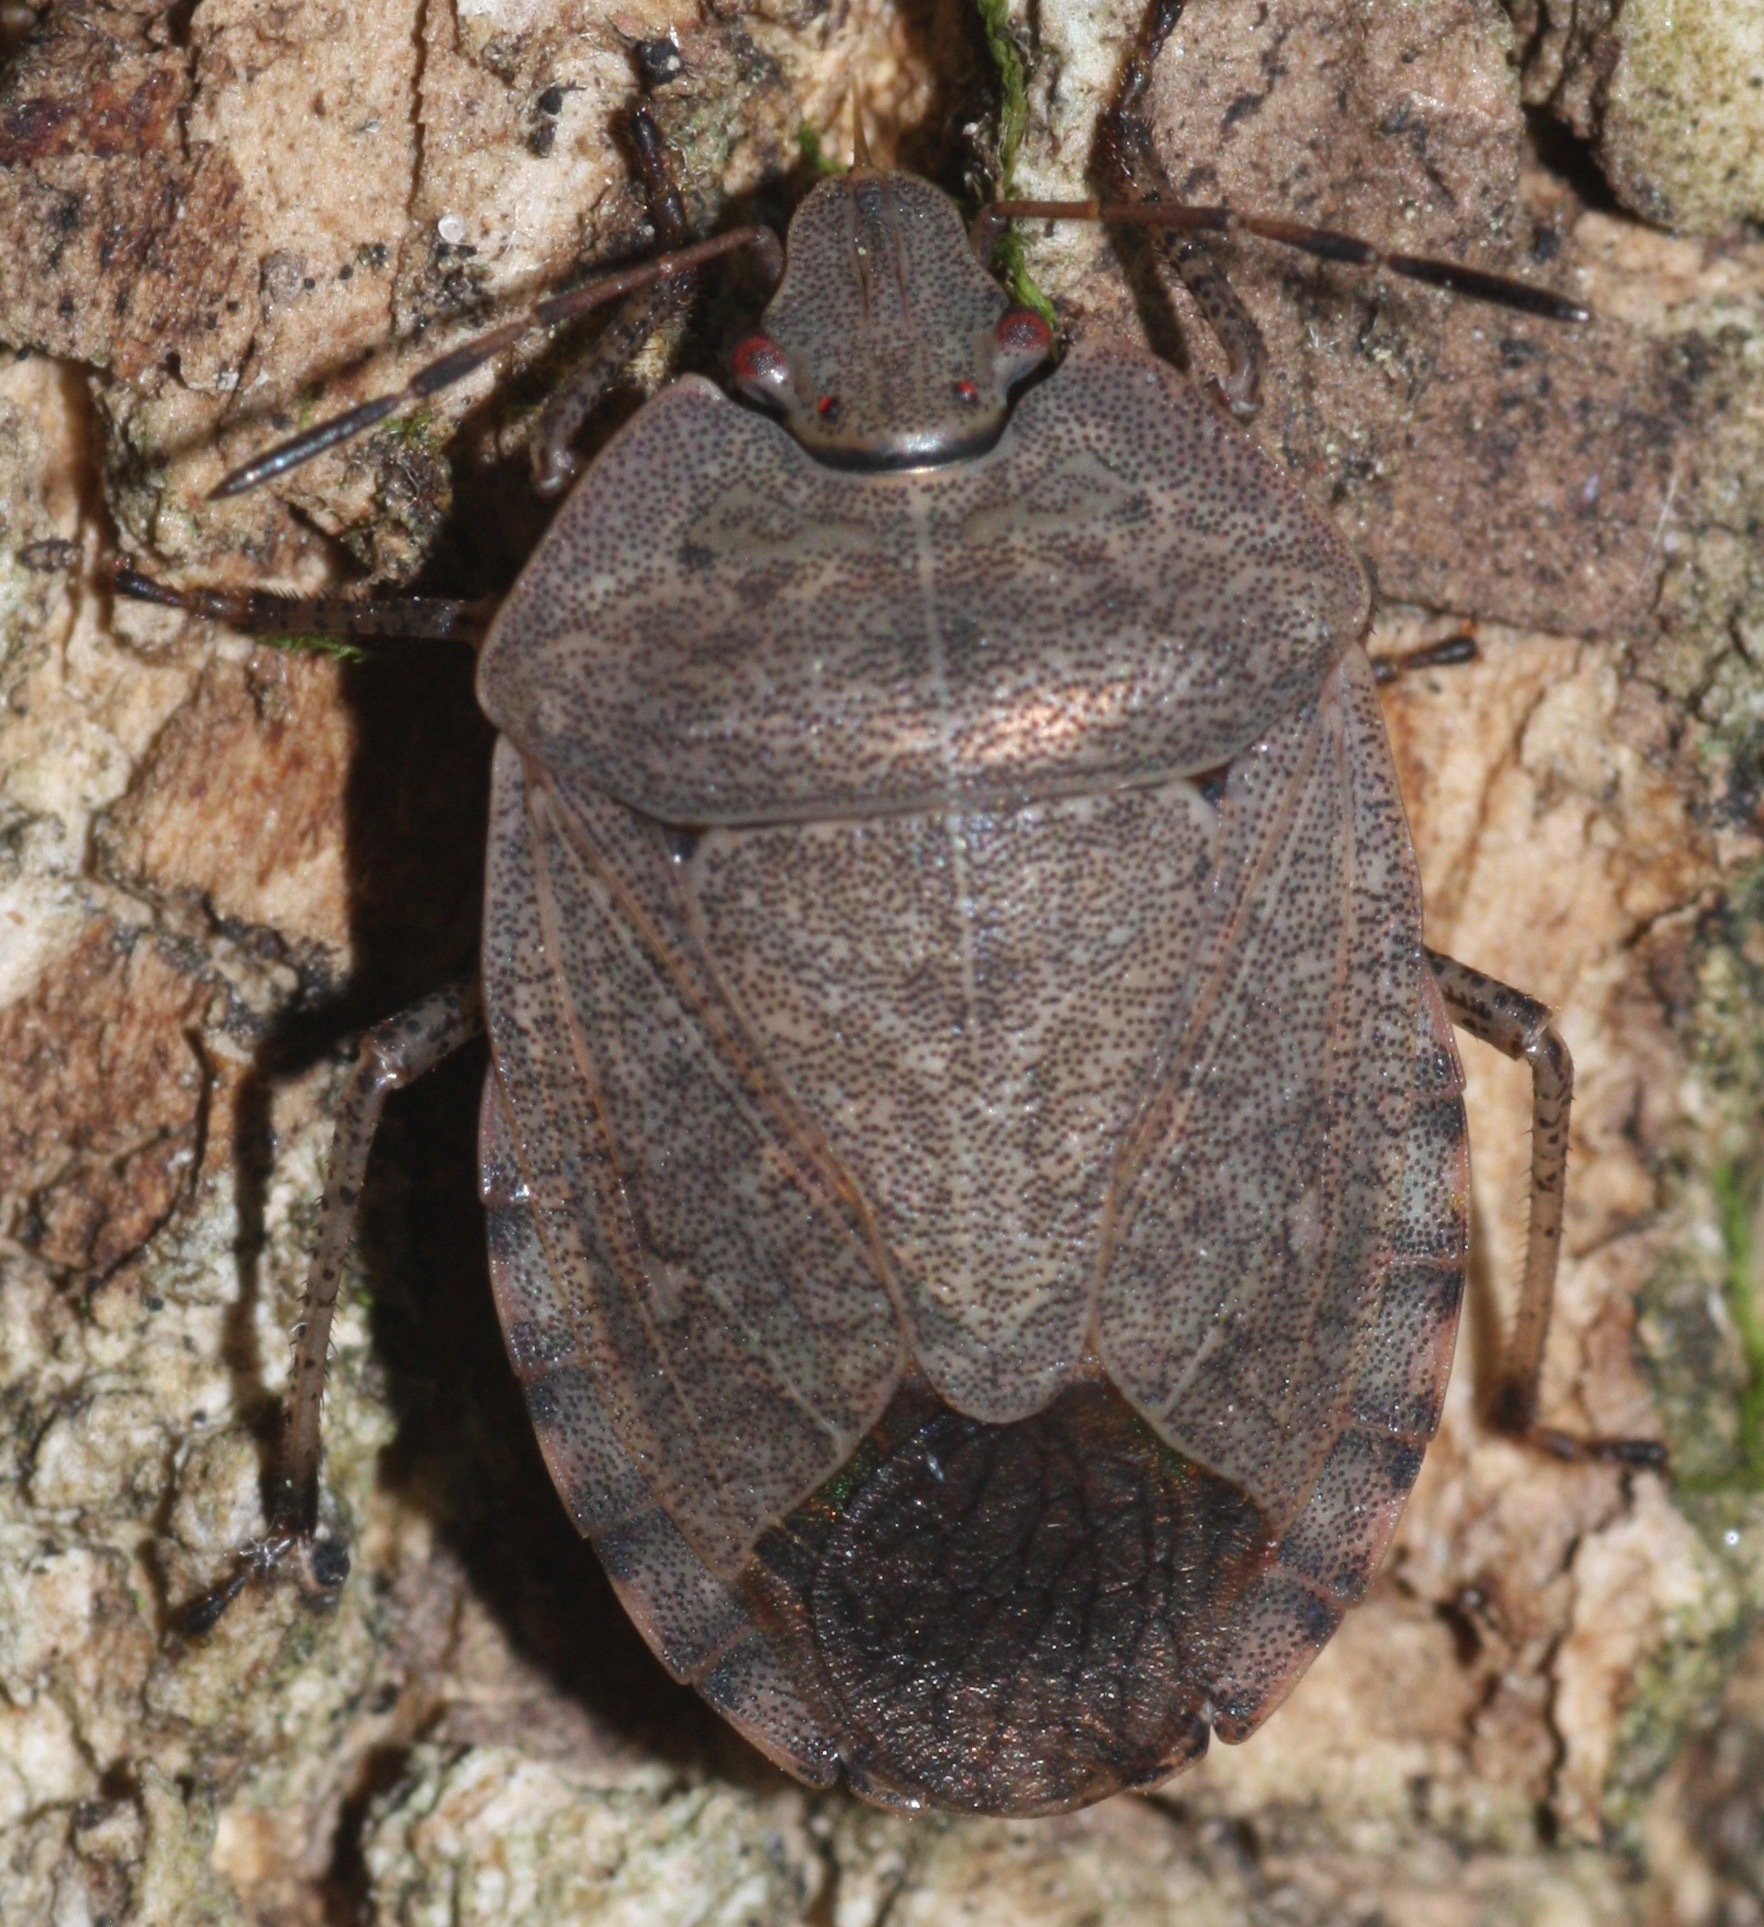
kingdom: Animalia
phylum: Arthropoda
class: Insecta
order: Hemiptera
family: Pentatomidae
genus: Menecles
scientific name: Menecles insertus
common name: Elf shoe stink bug
